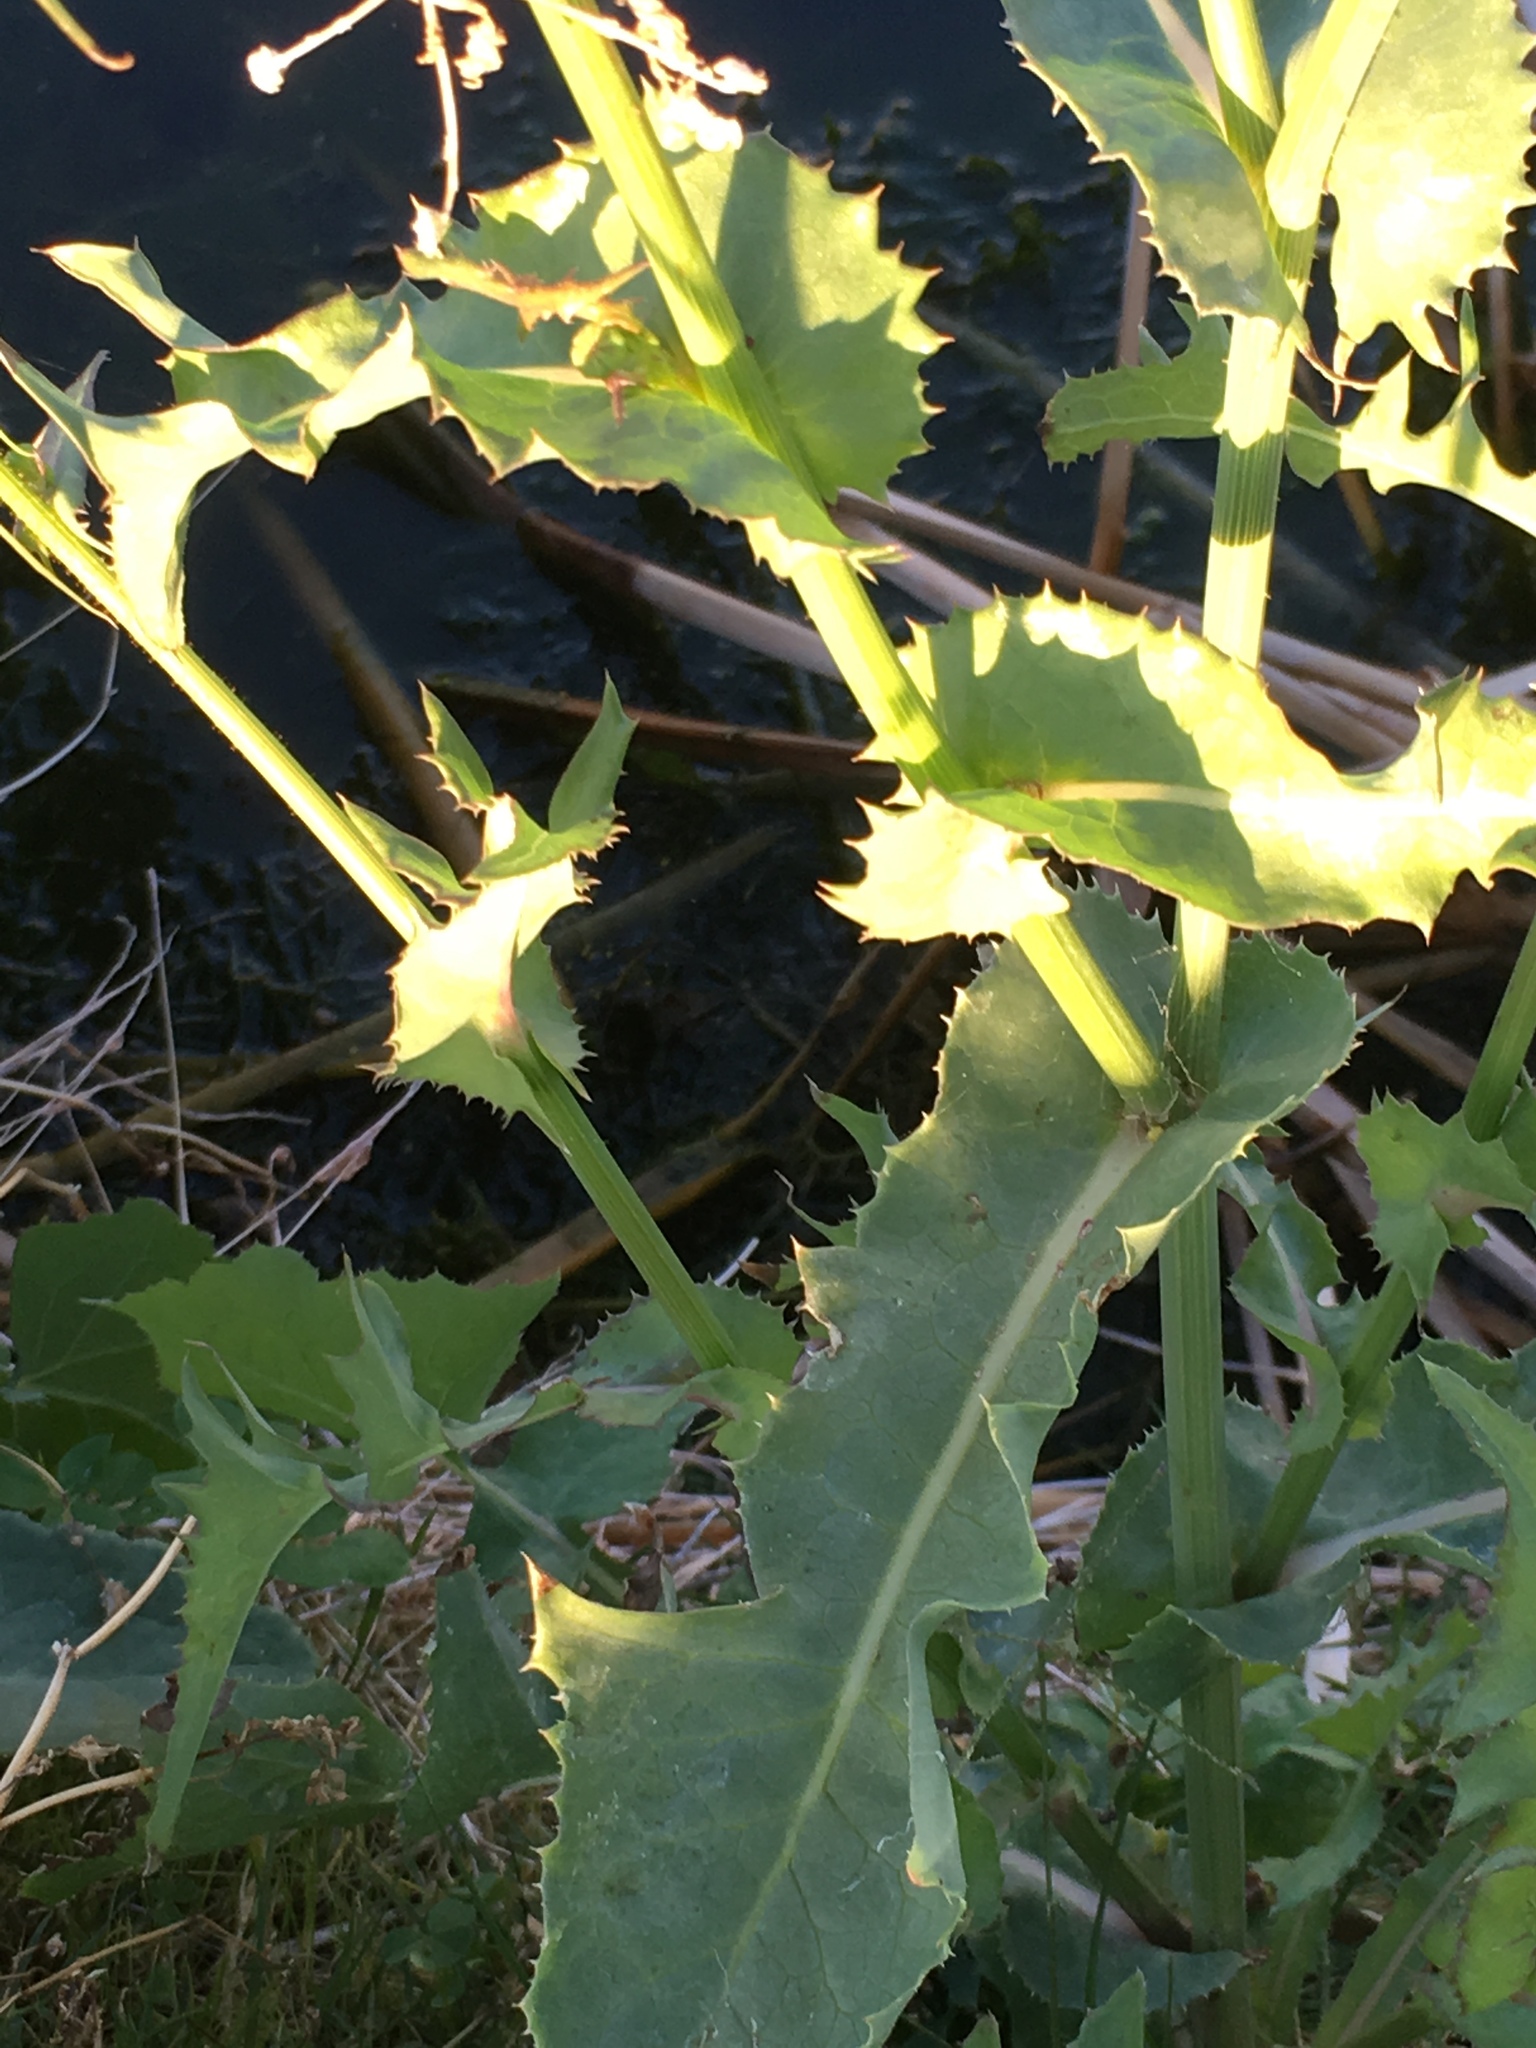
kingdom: Plantae
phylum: Tracheophyta
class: Magnoliopsida
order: Asterales
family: Asteraceae
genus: Sonchus
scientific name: Sonchus oleraceus
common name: Common sowthistle
